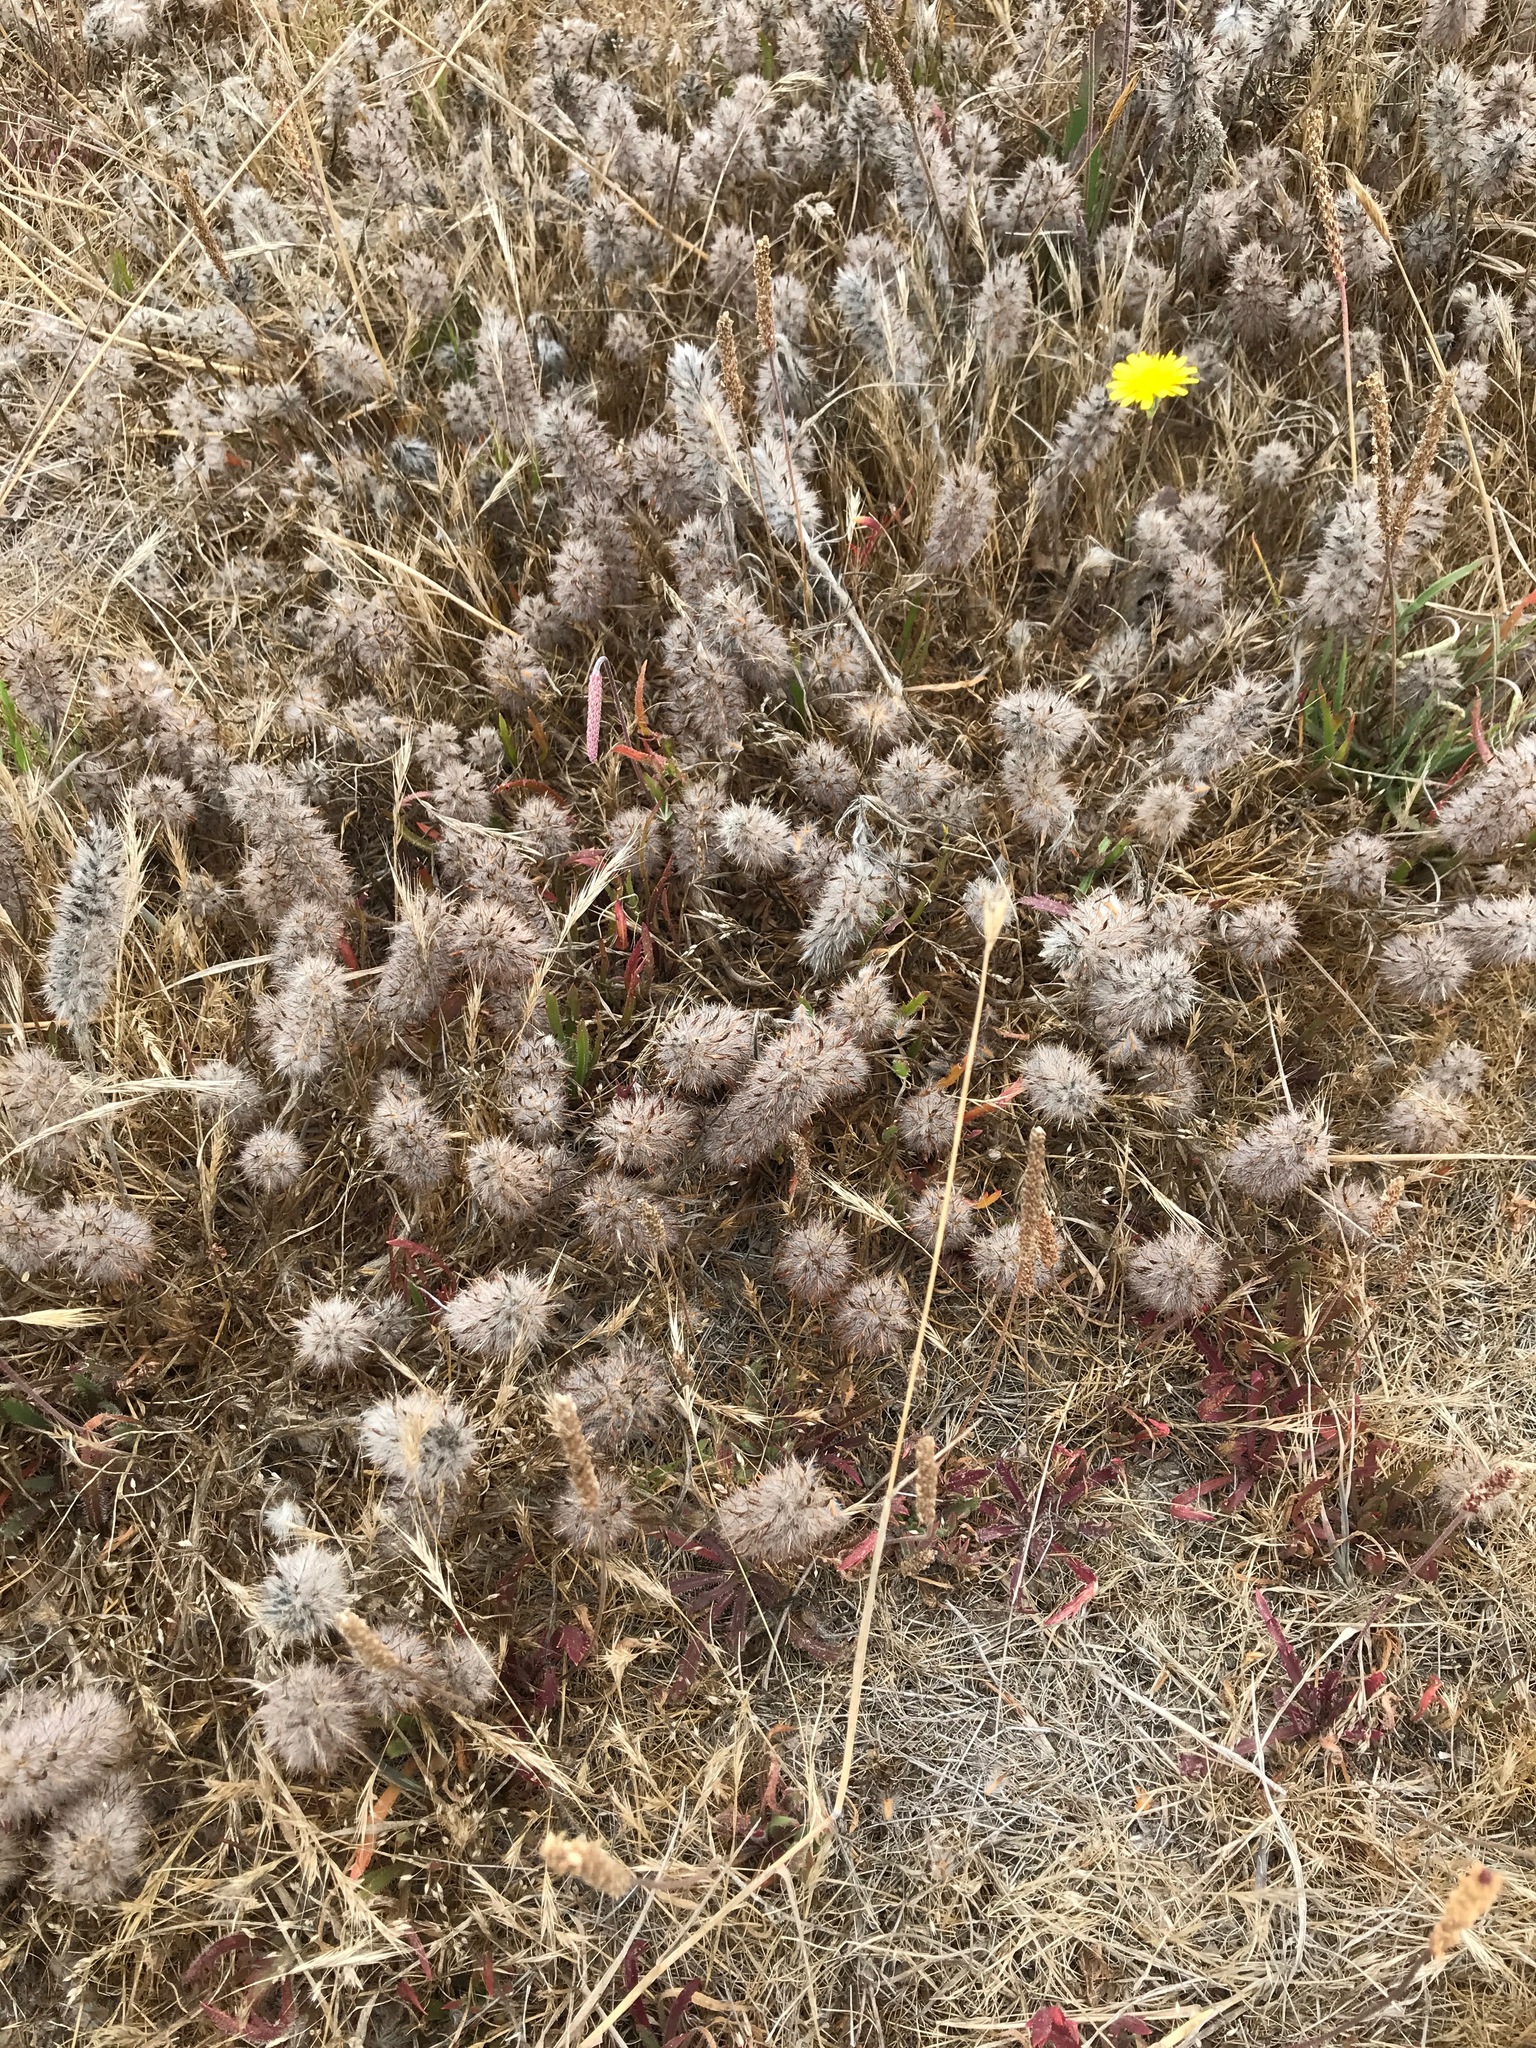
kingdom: Plantae
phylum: Tracheophyta
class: Magnoliopsida
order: Fabales
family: Fabaceae
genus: Trifolium
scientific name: Trifolium angustifolium
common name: Narrow clover
